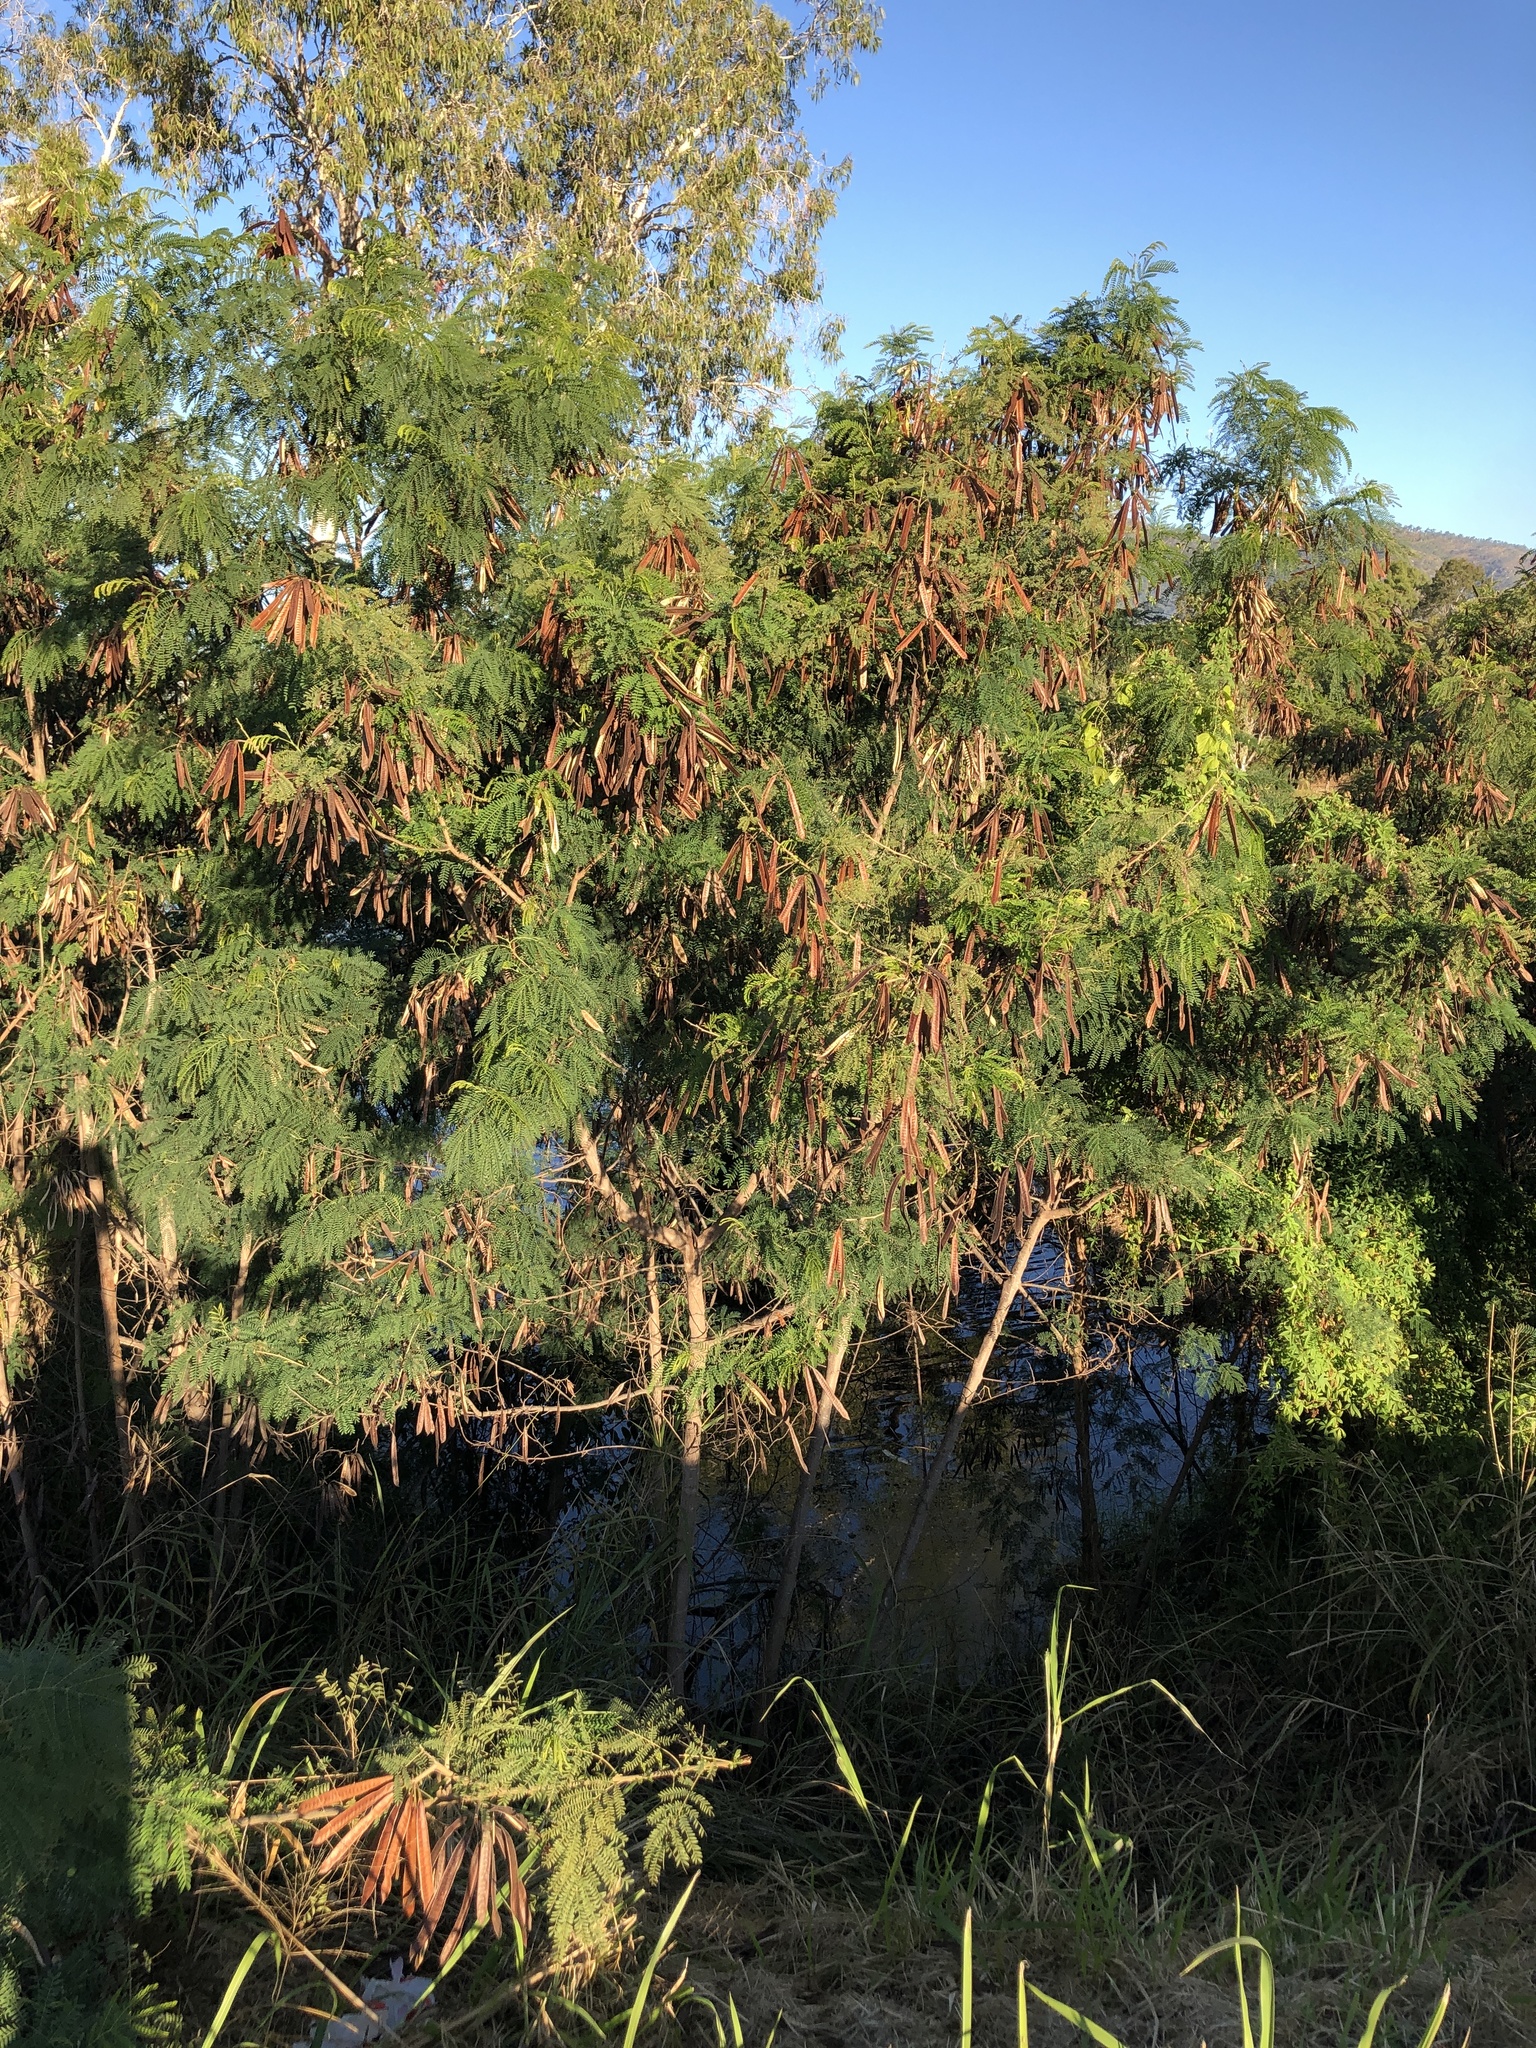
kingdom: Plantae
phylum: Tracheophyta
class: Magnoliopsida
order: Fabales
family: Fabaceae
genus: Leucaena
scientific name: Leucaena leucocephala
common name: White leadtree
